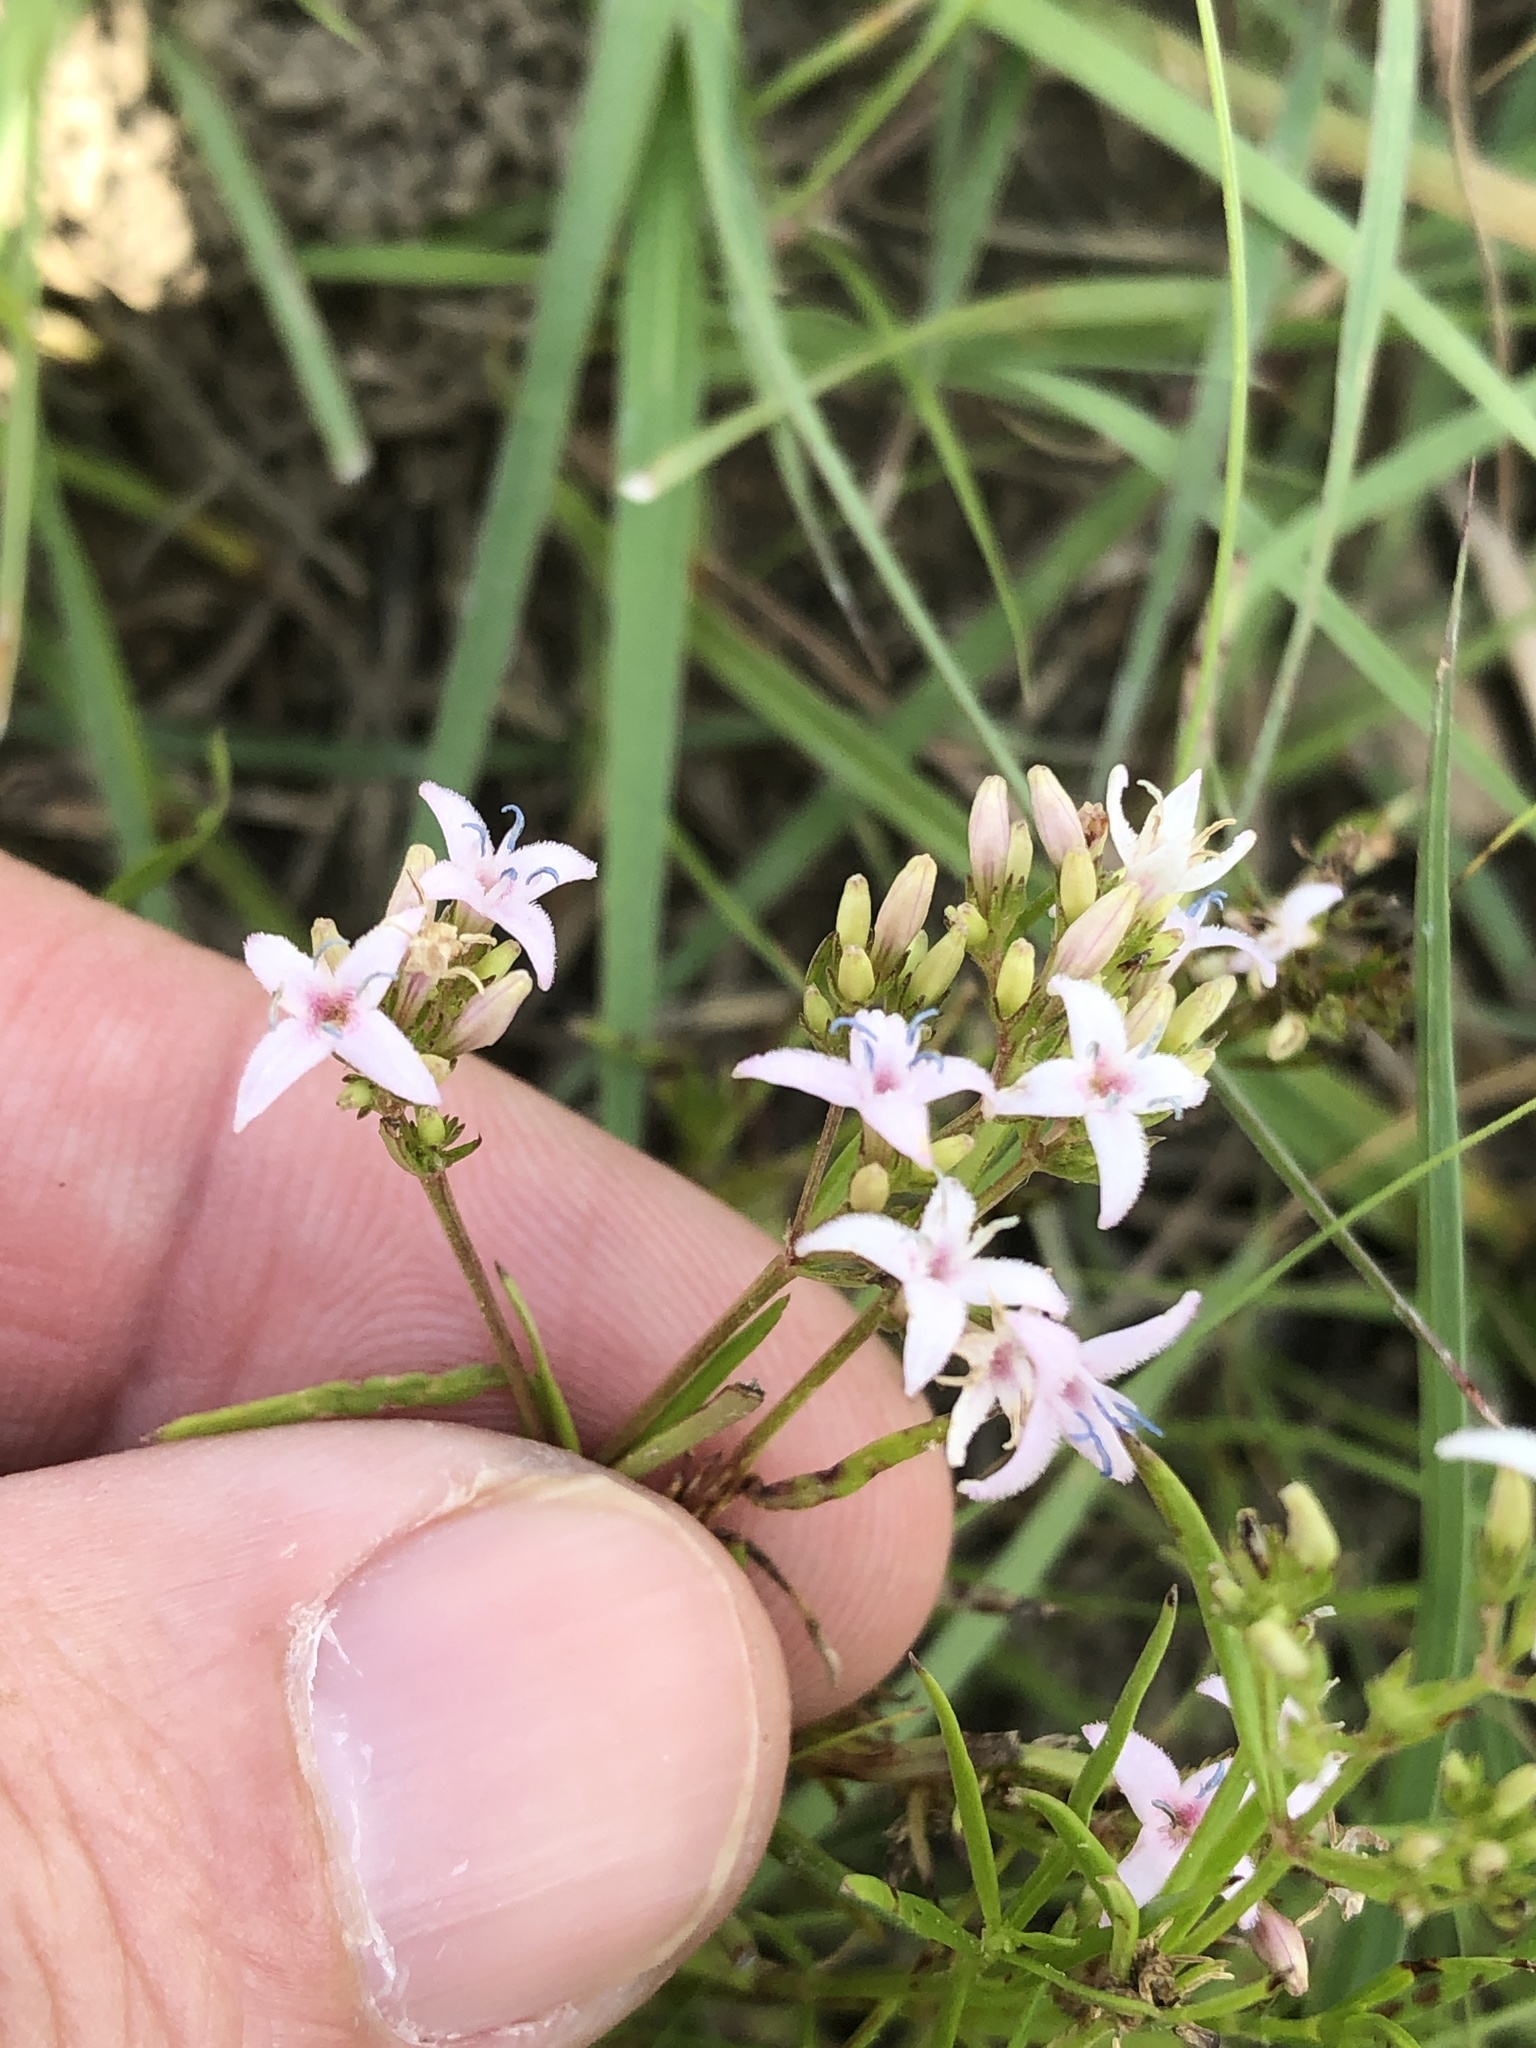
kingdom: Plantae
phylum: Tracheophyta
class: Magnoliopsida
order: Gentianales
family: Rubiaceae
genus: Stenaria
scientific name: Stenaria nigricans
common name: Diamondflowers
